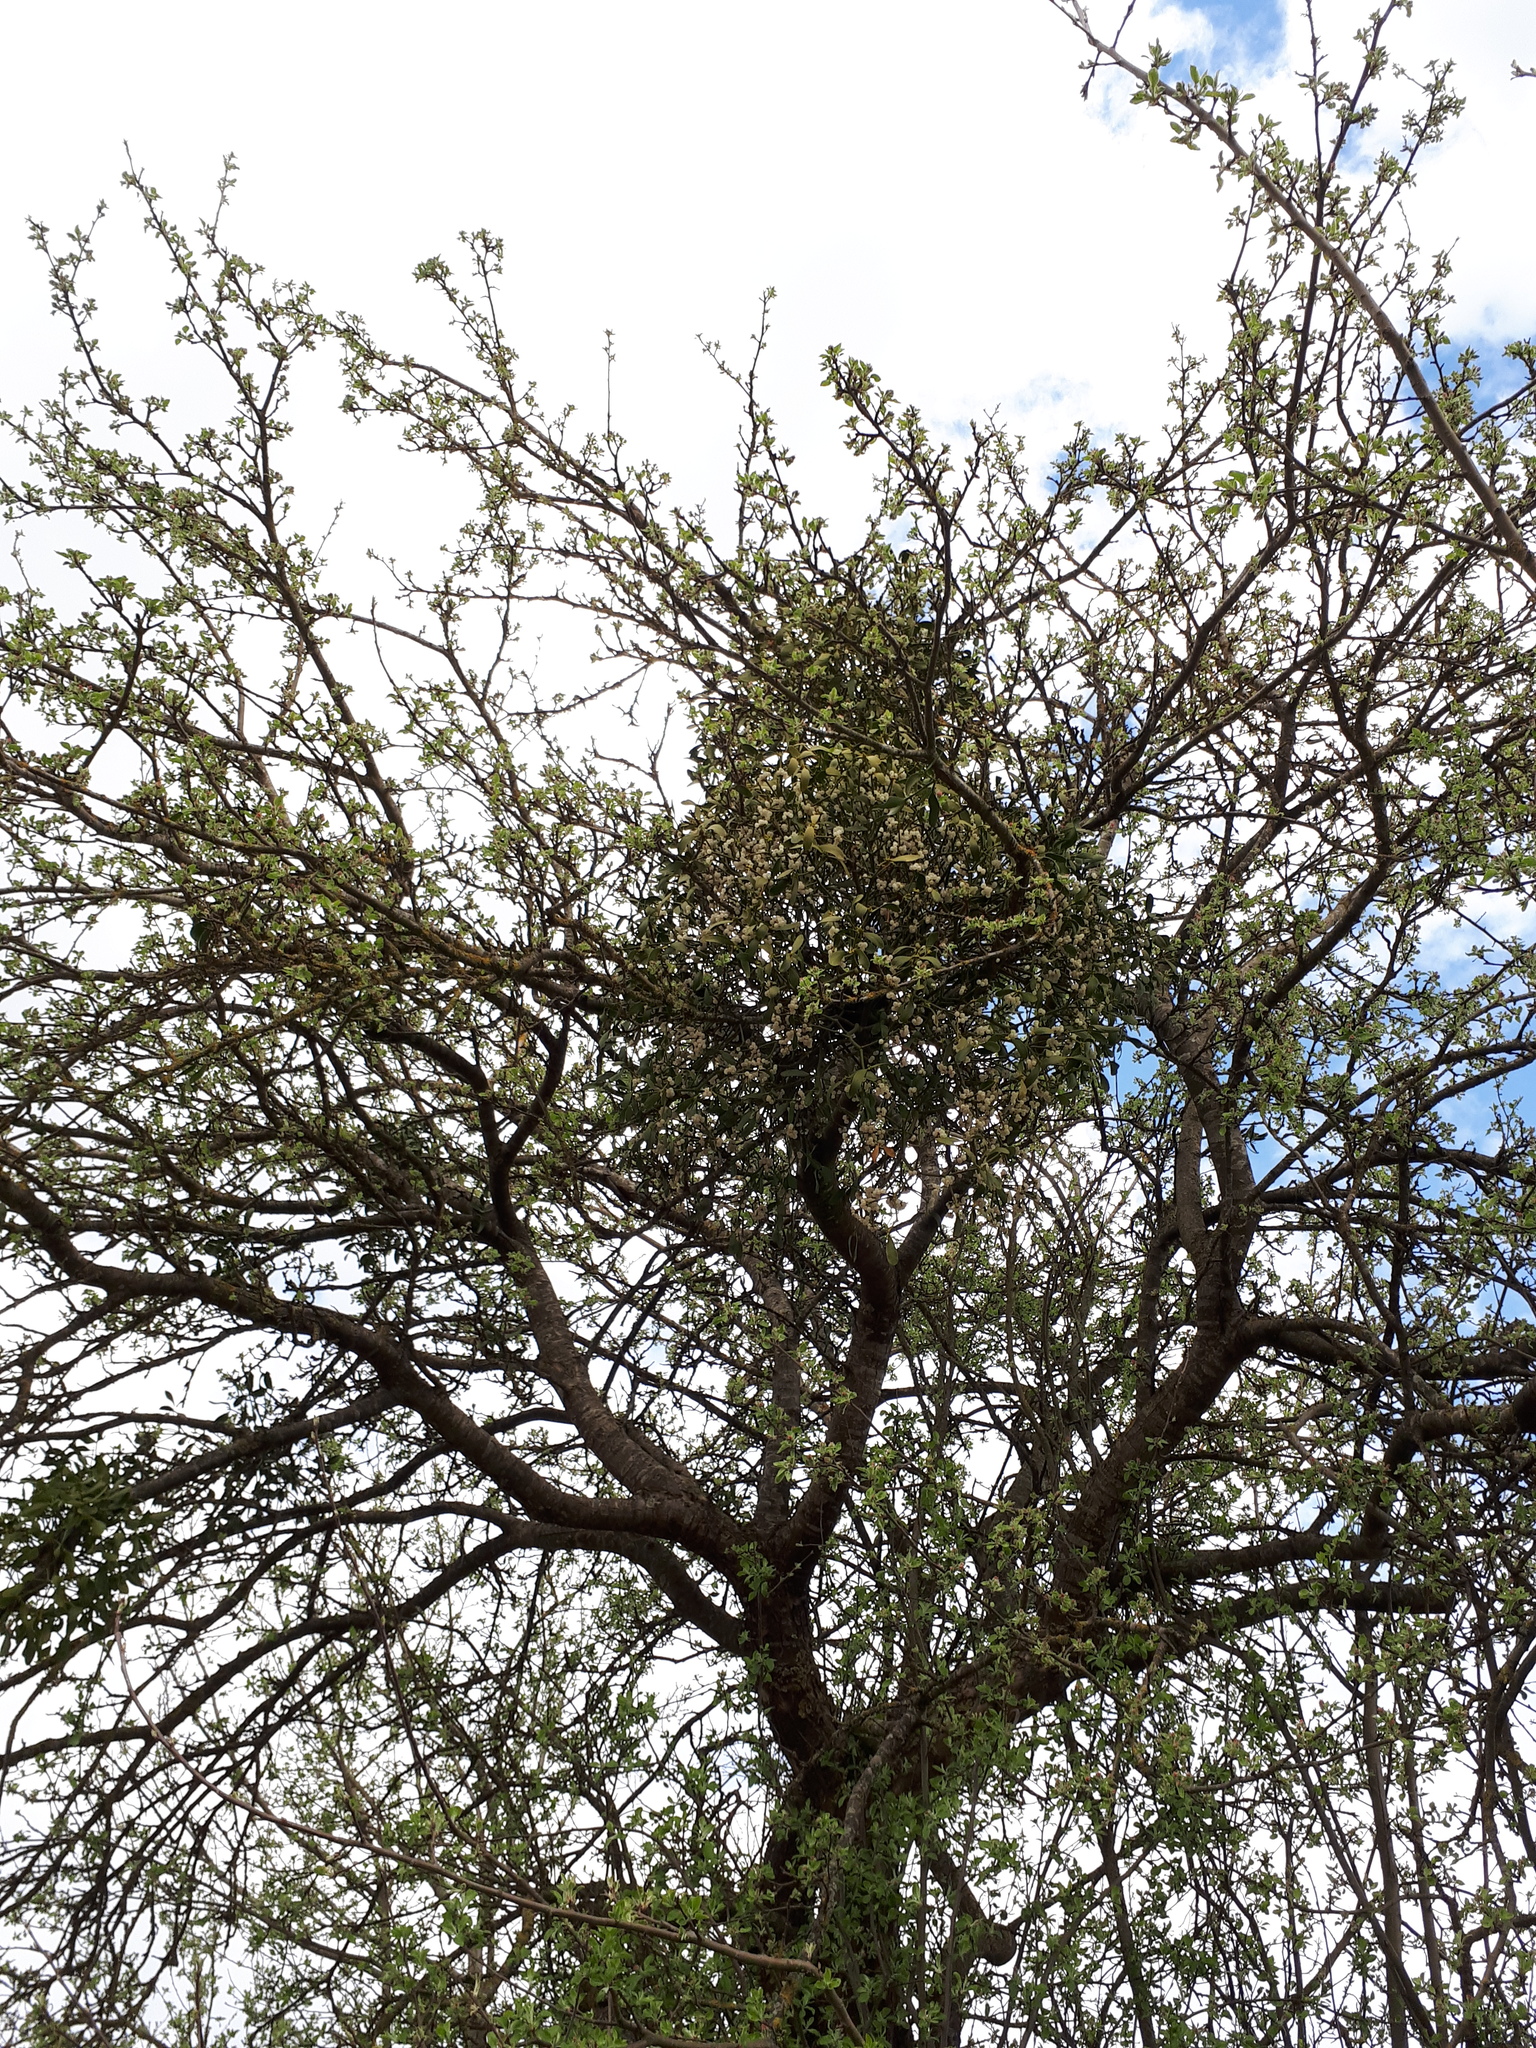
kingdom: Plantae
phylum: Tracheophyta
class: Magnoliopsida
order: Santalales
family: Viscaceae
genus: Viscum
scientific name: Viscum album
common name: Mistletoe
